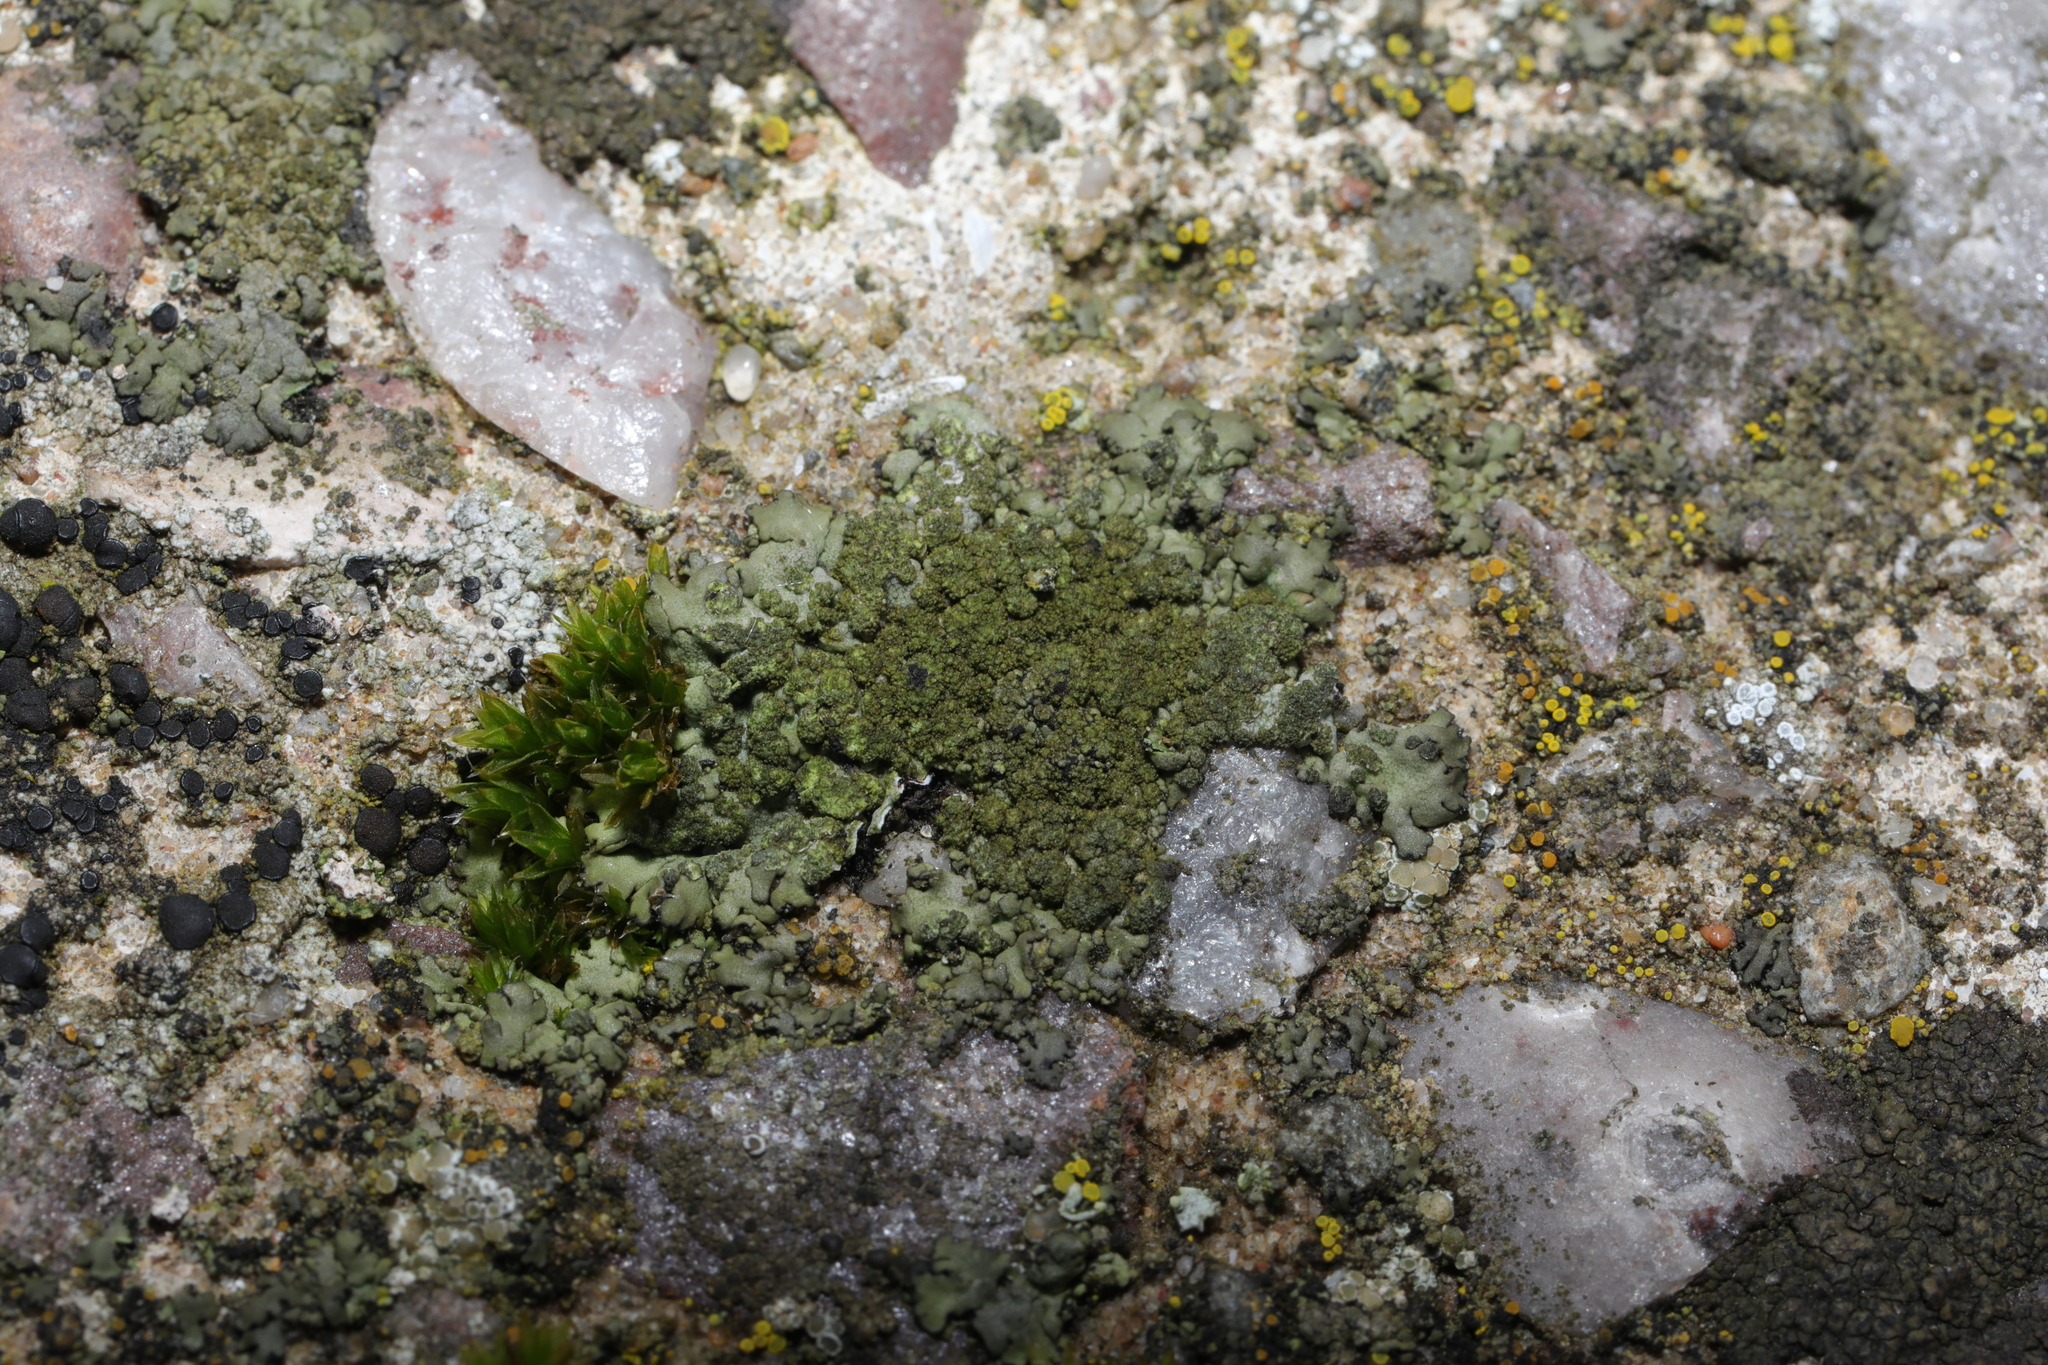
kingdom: Fungi
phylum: Ascomycota
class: Lecanoromycetes
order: Caliciales
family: Physciaceae
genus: Phaeophyscia
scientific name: Phaeophyscia orbicularis
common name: Mealy shadow lichen
